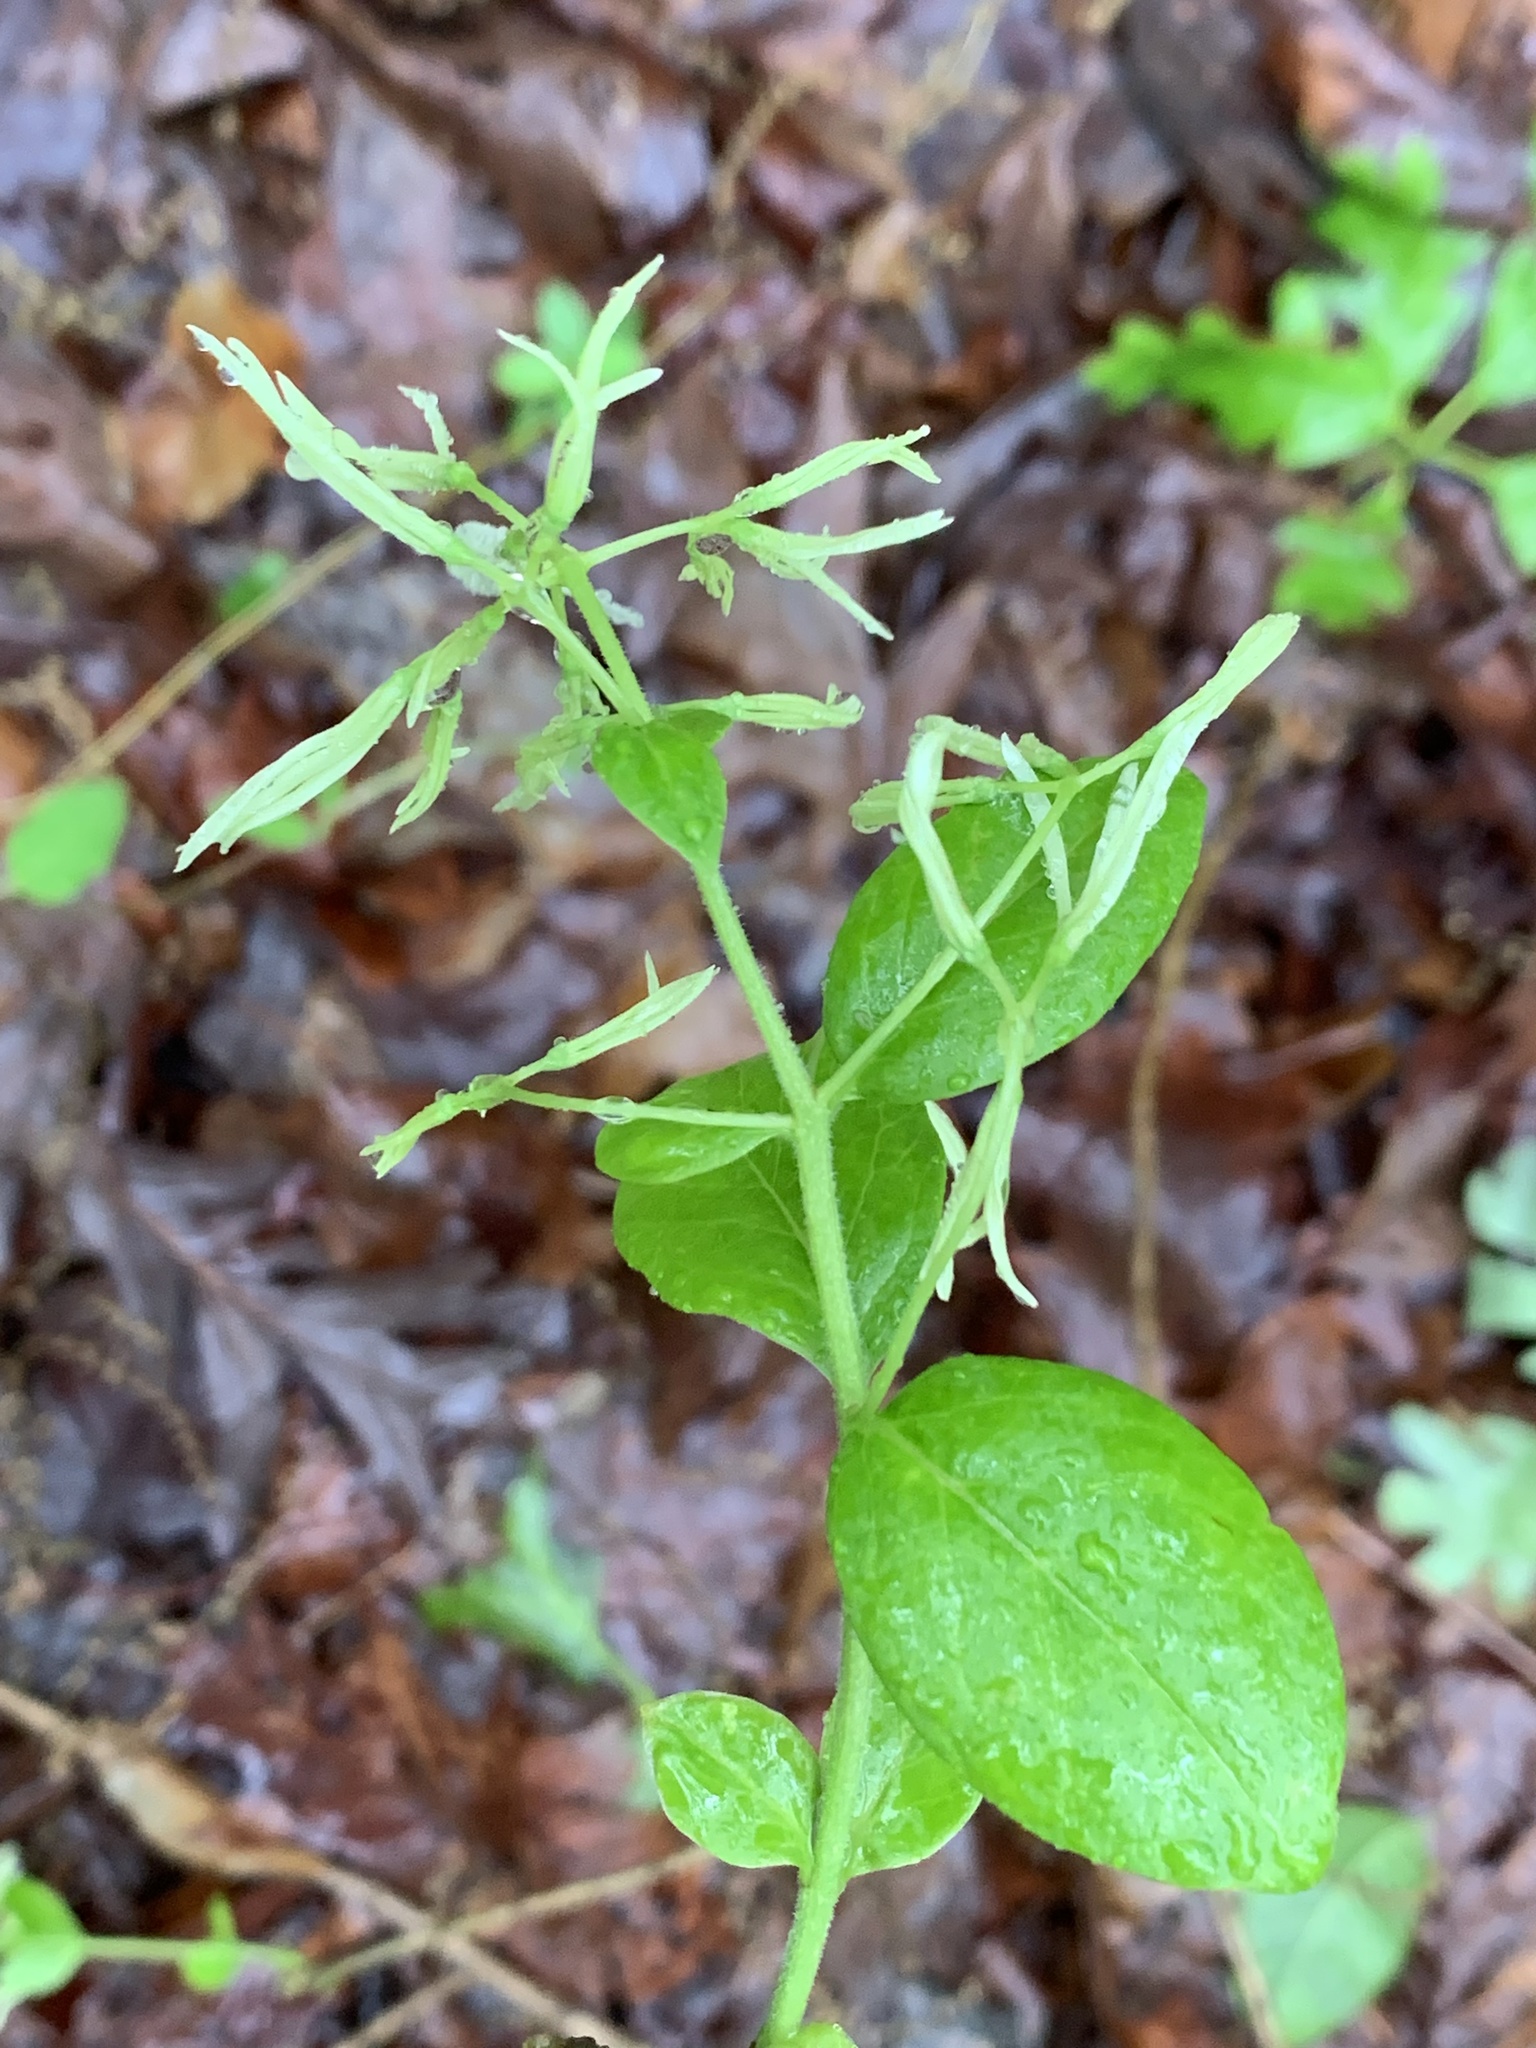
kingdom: Plantae
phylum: Tracheophyta
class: Magnoliopsida
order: Lamiales
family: Oleaceae
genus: Chionanthus
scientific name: Chionanthus virginicus
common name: American fringetree
